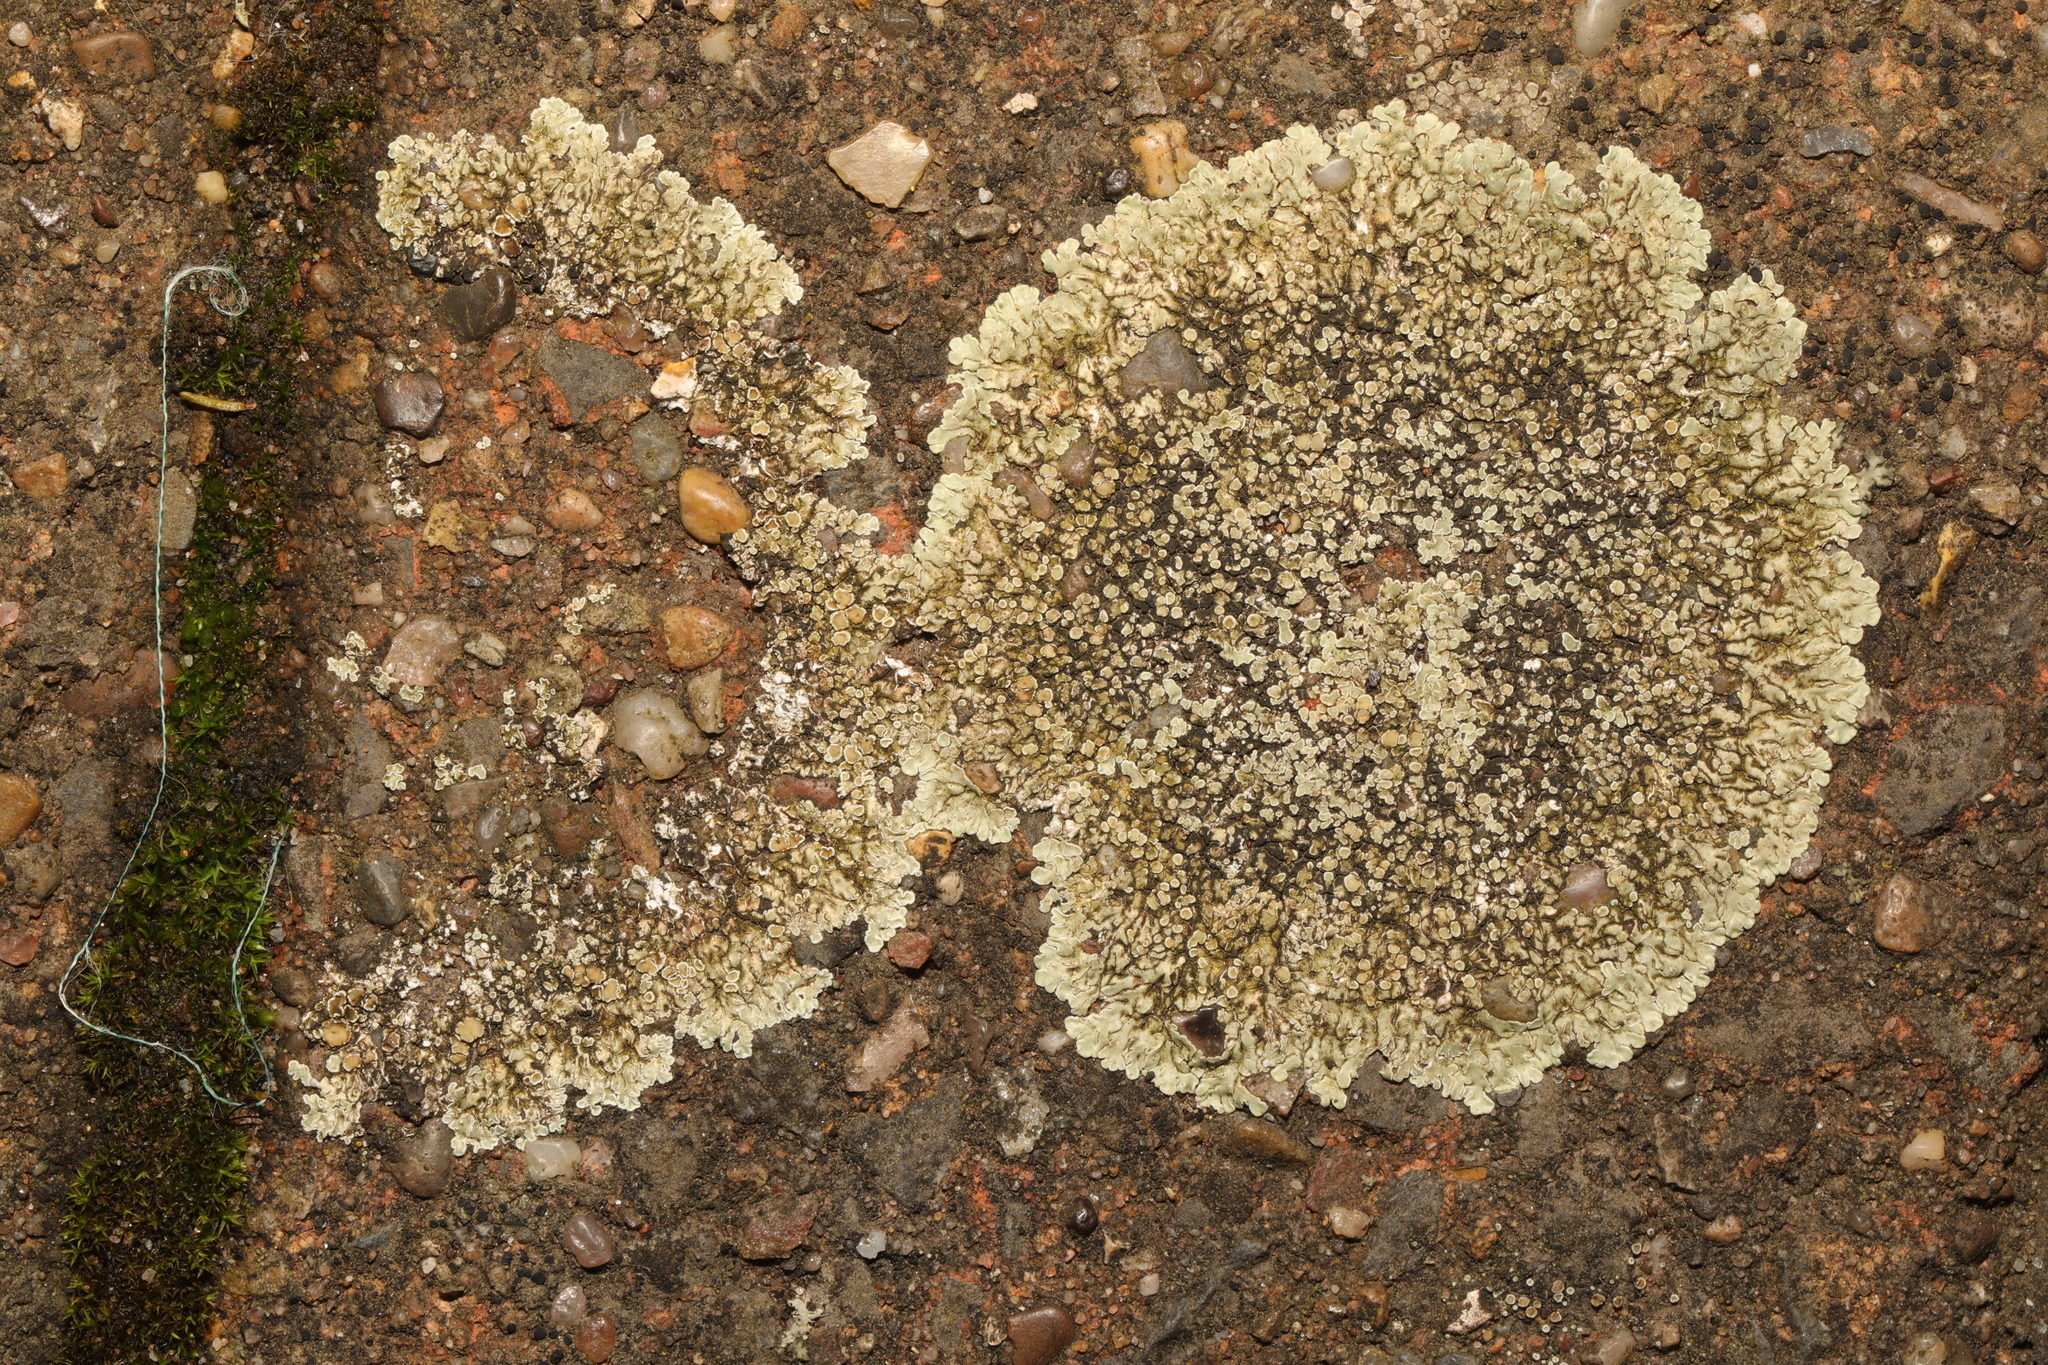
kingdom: Fungi
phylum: Ascomycota
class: Lecanoromycetes
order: Lecanorales
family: Lecanoraceae
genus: Protoparmeliopsis
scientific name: Protoparmeliopsis muralis
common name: Stonewall rim lichen
